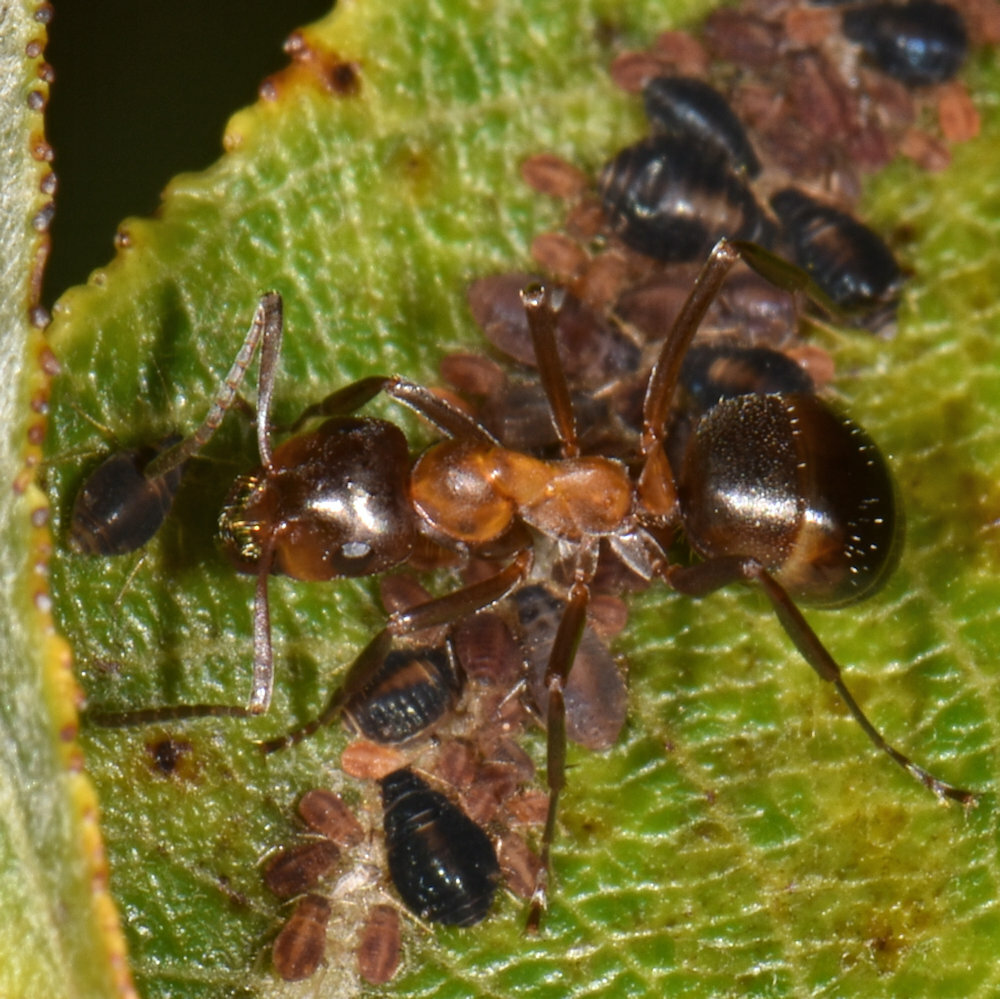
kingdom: Animalia
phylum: Arthropoda
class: Insecta
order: Hymenoptera
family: Formicidae
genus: Formica
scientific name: Formica ulkei
